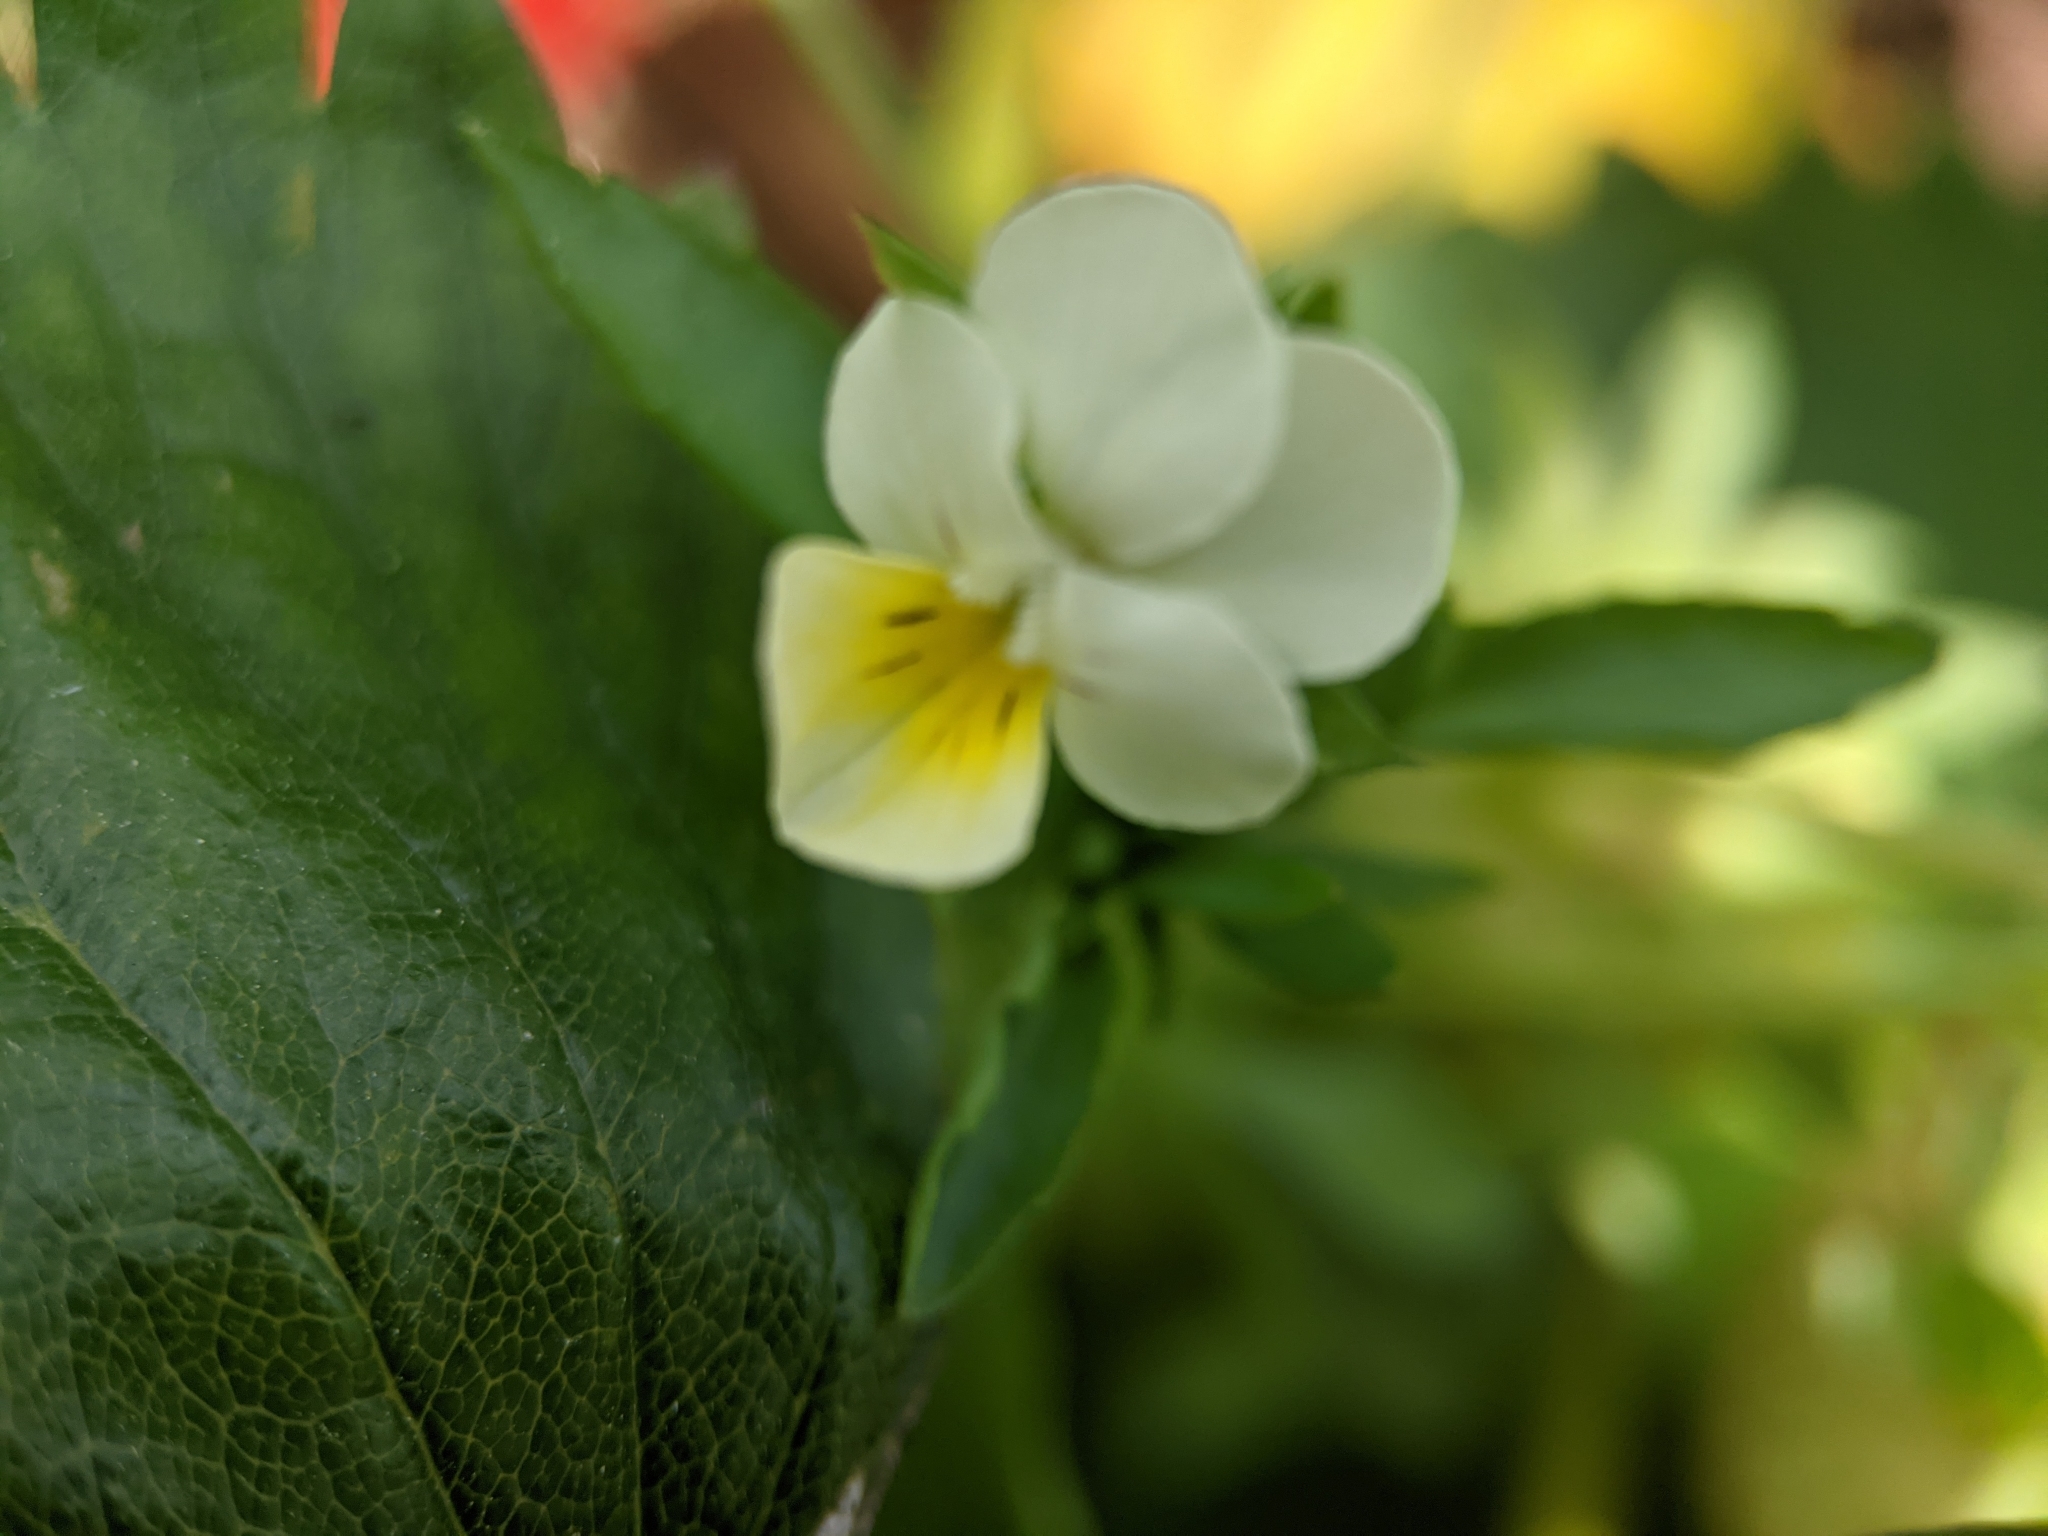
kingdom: Plantae
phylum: Tracheophyta
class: Magnoliopsida
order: Malpighiales
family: Violaceae
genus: Viola
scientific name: Viola arvensis
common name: Field pansy
